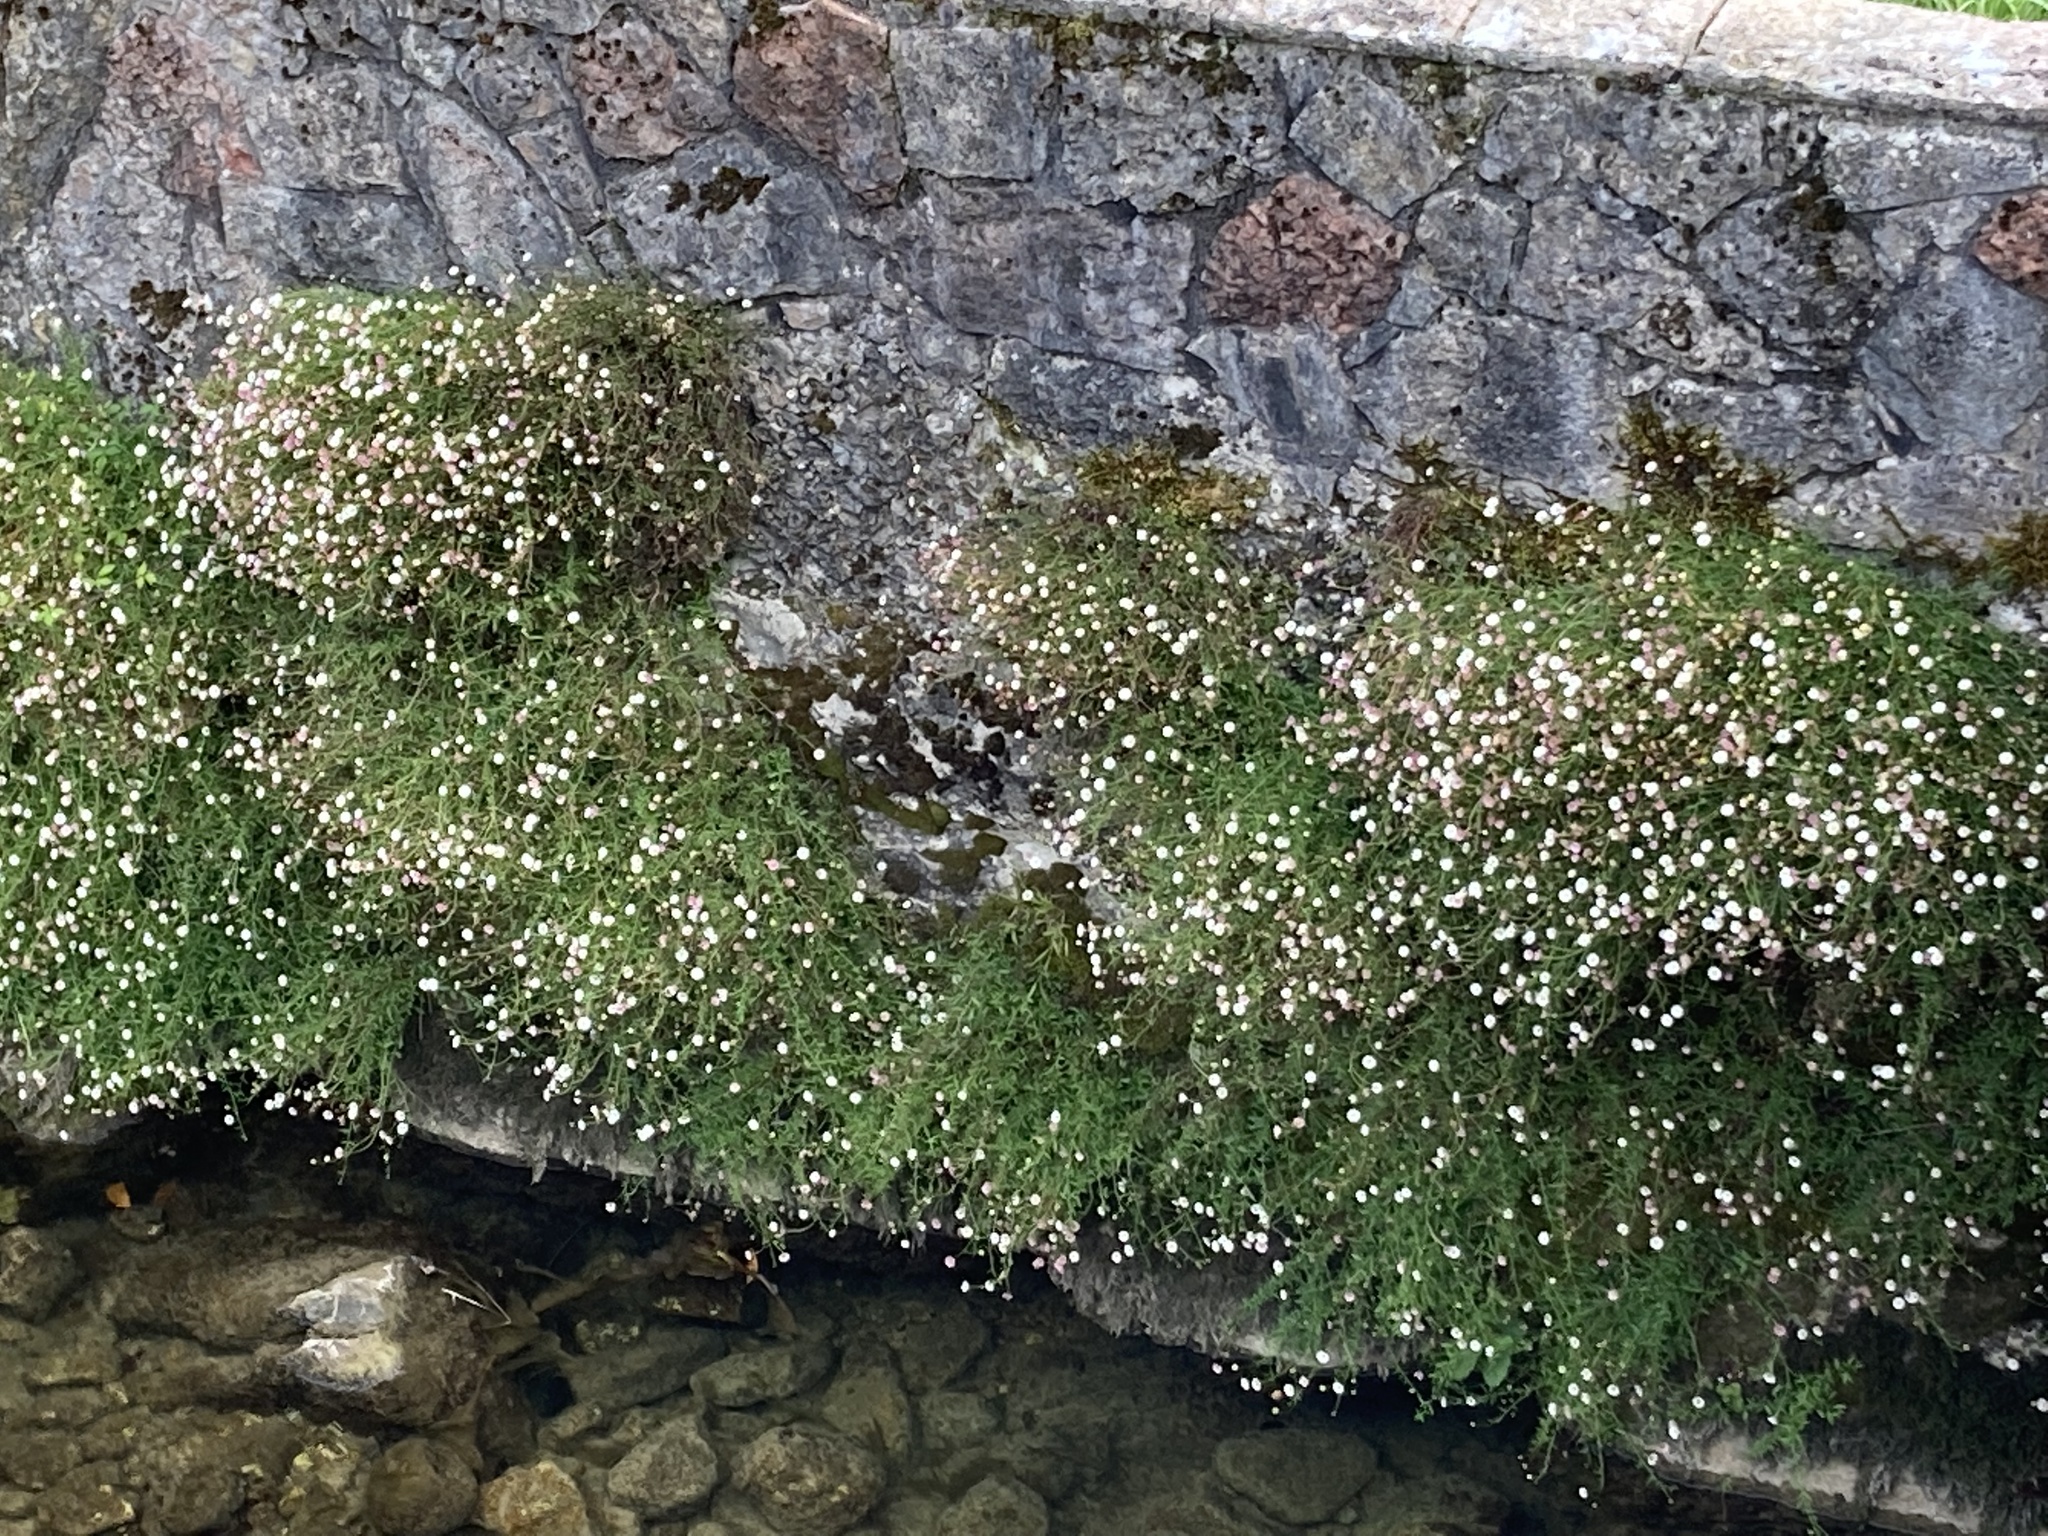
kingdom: Plantae
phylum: Tracheophyta
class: Magnoliopsida
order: Asterales
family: Asteraceae
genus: Erigeron
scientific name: Erigeron karvinskianus
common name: Mexican fleabane
